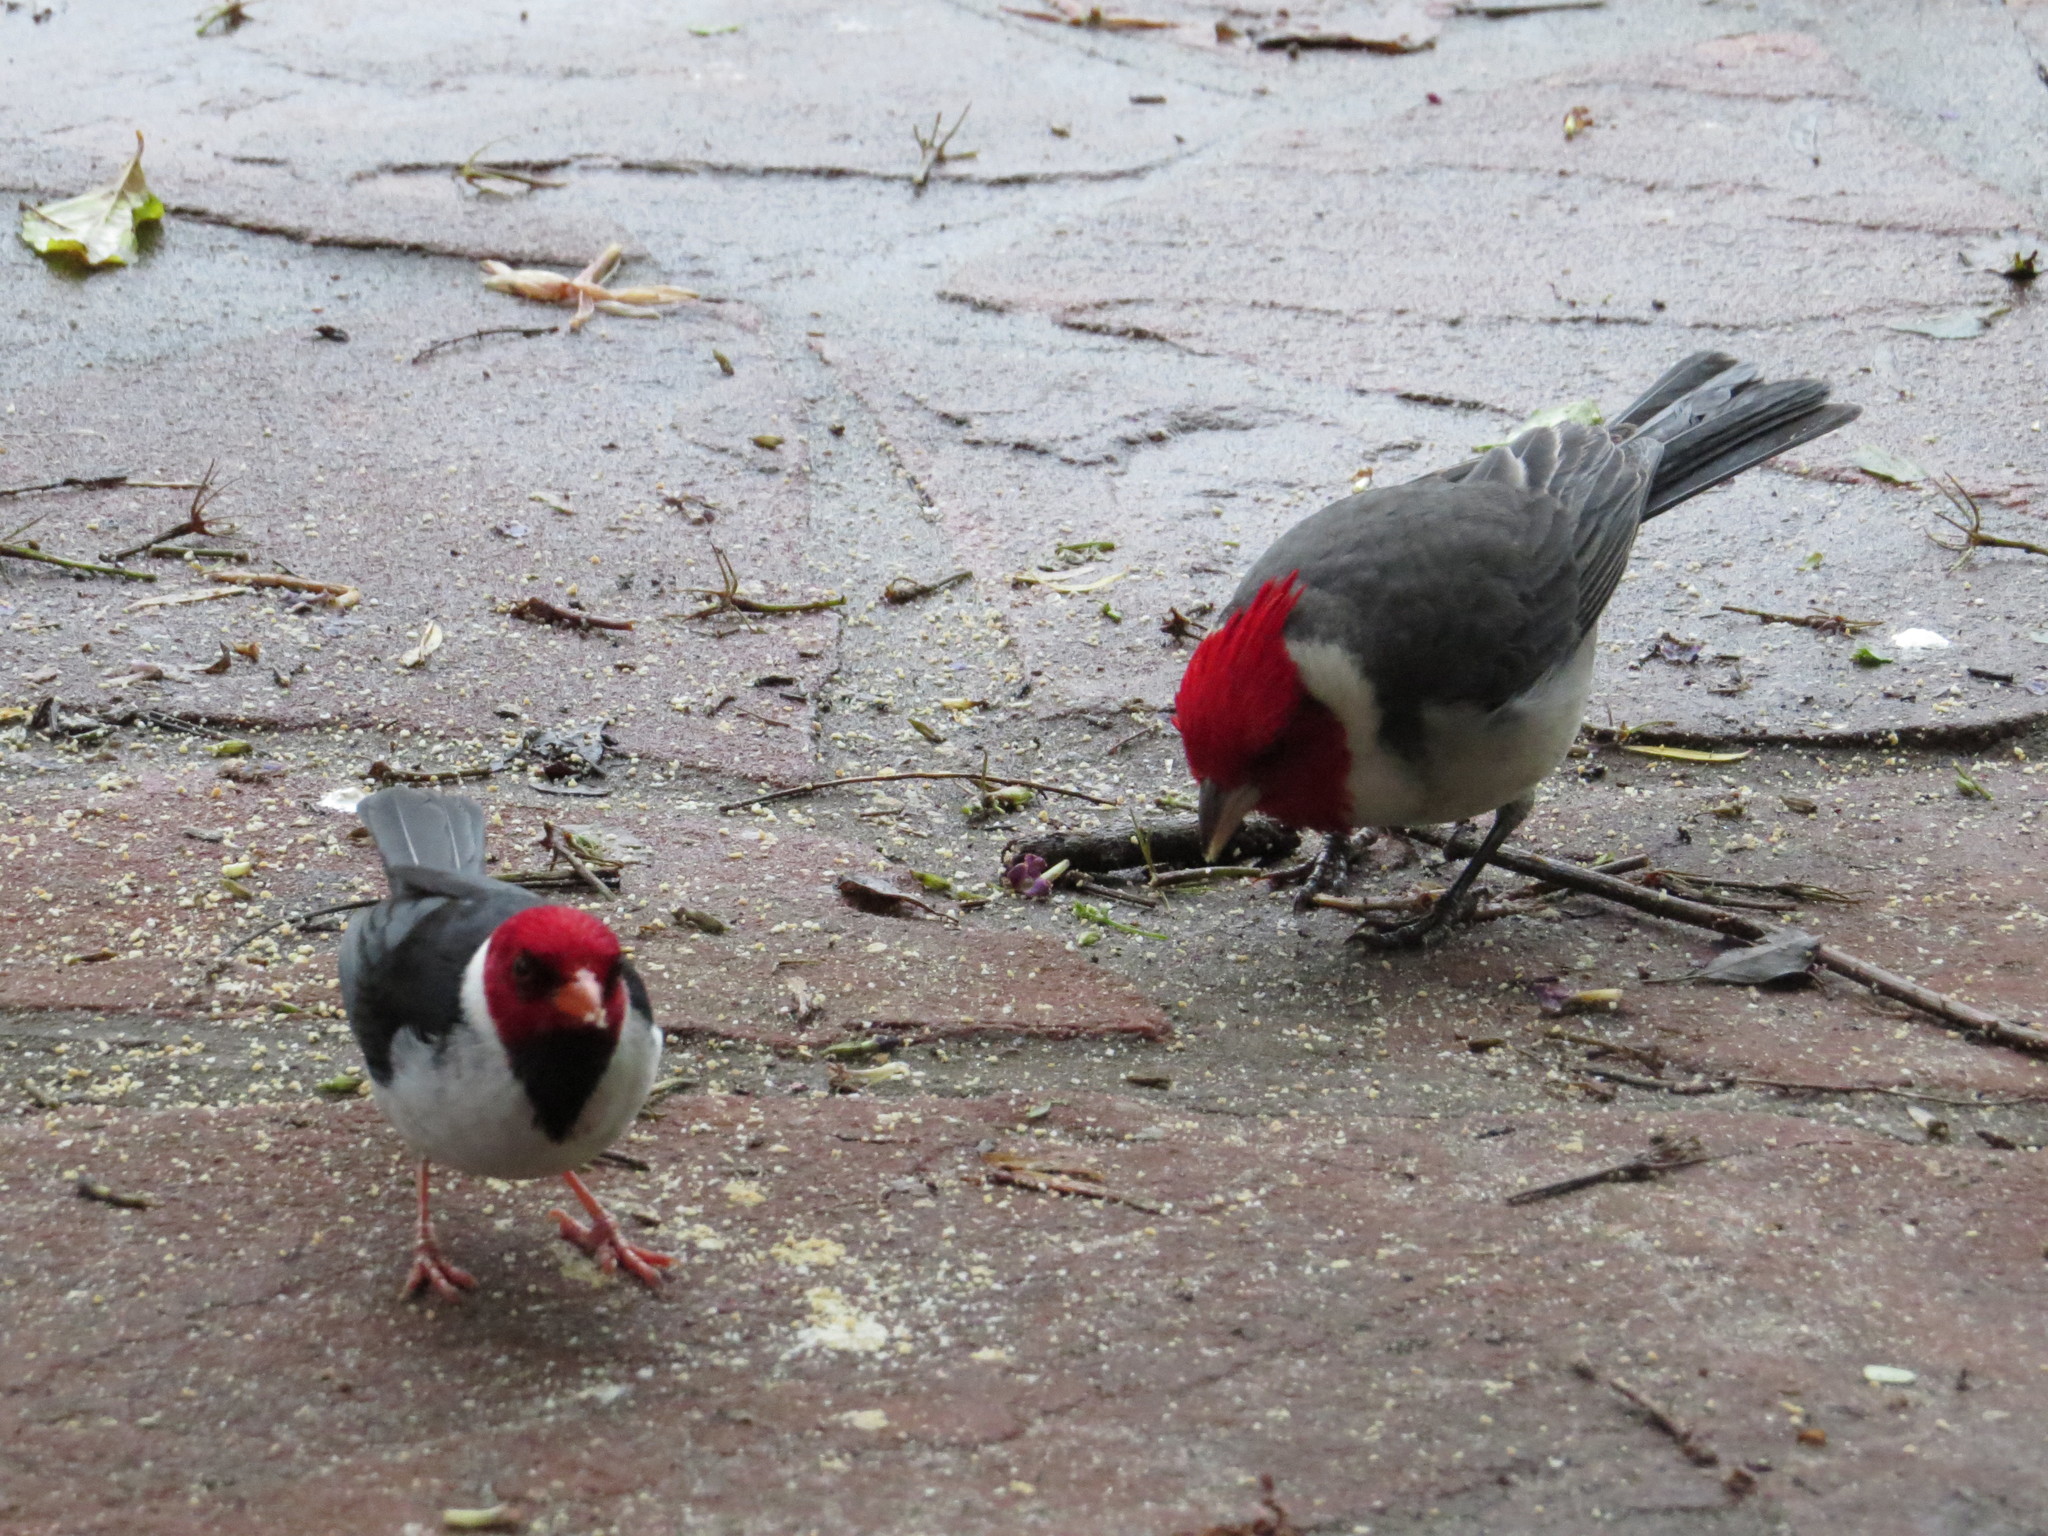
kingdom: Animalia
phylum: Chordata
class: Aves
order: Passeriformes
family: Thraupidae
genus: Paroaria
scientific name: Paroaria capitata
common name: Yellow-billed cardinal
